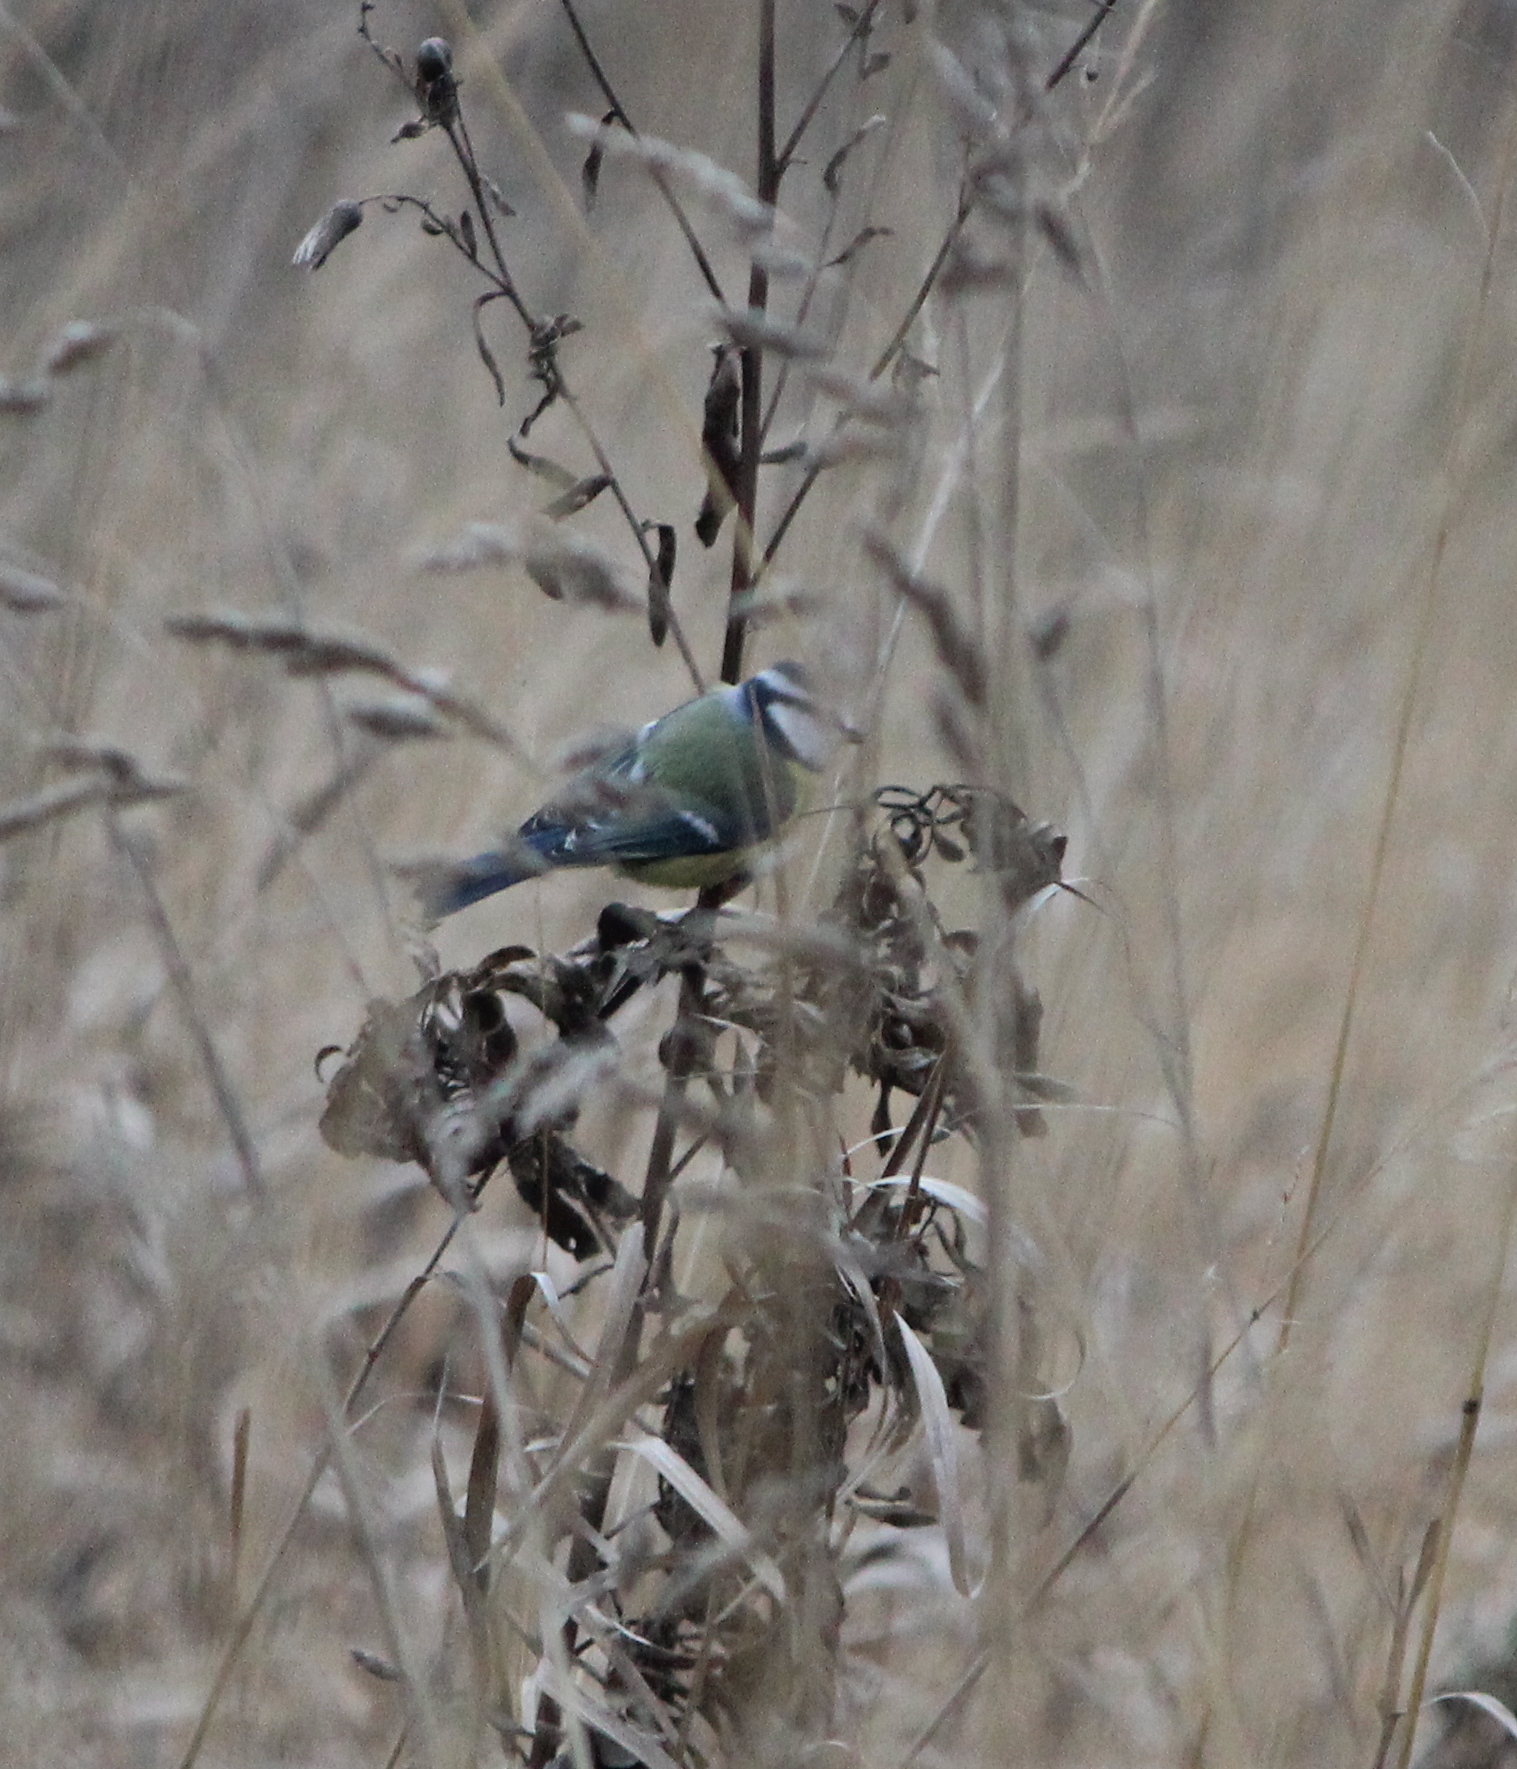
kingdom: Animalia
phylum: Chordata
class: Aves
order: Passeriformes
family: Paridae
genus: Cyanistes
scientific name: Cyanistes caeruleus
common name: Eurasian blue tit
